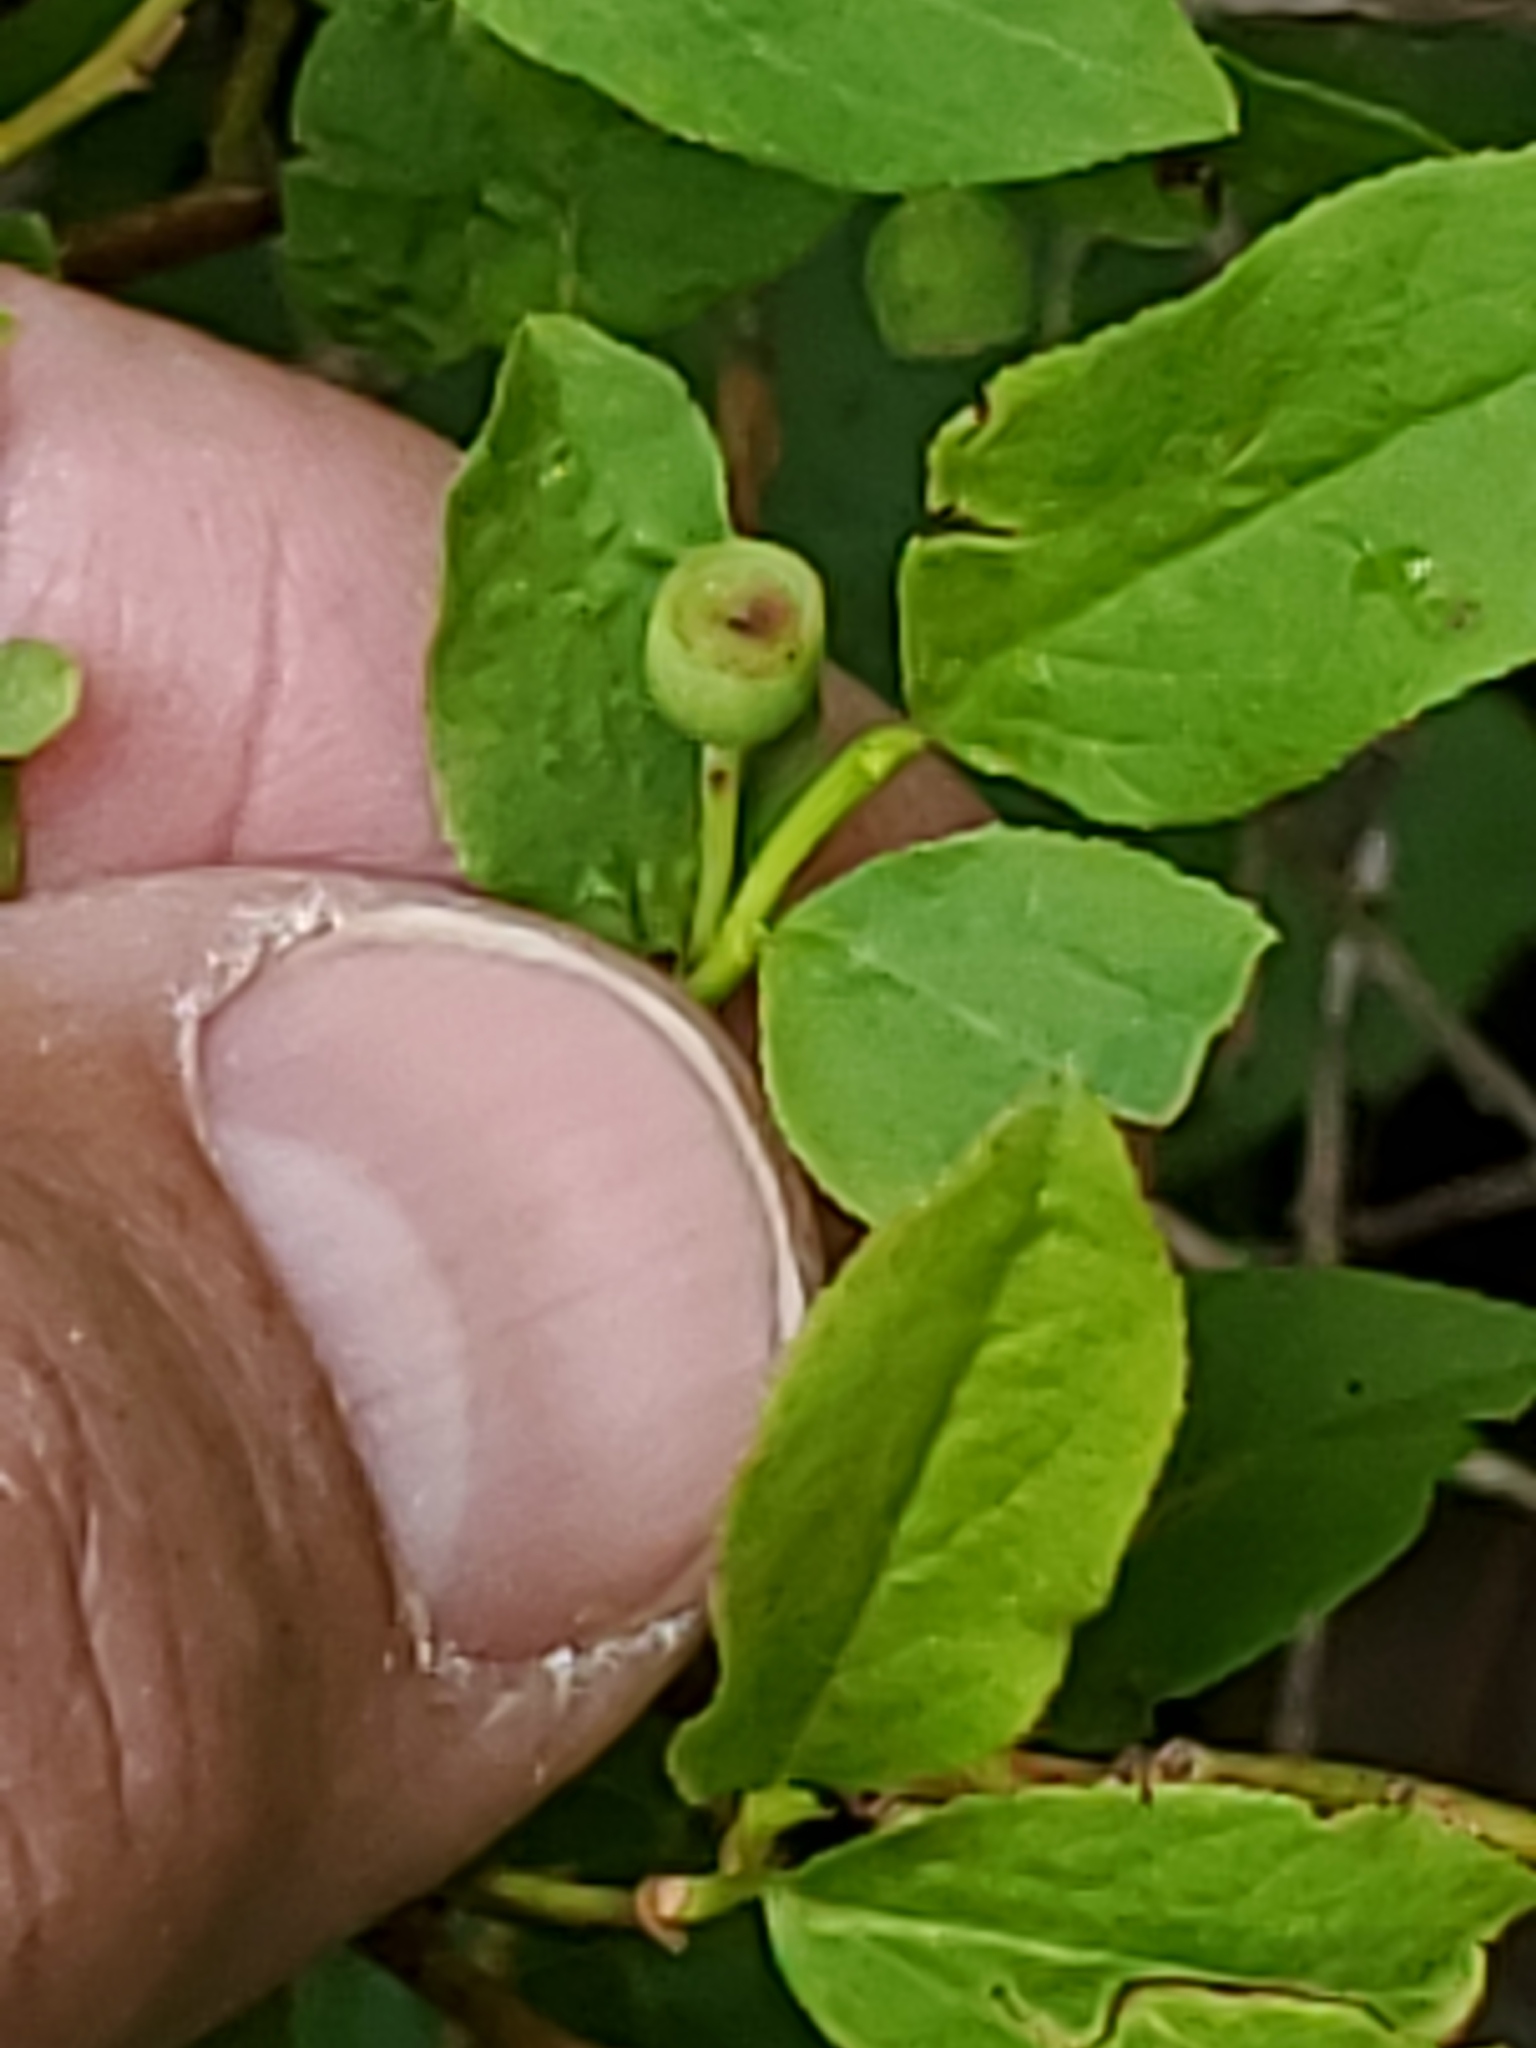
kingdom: Plantae
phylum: Tracheophyta
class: Magnoliopsida
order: Ericales
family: Ericaceae
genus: Vaccinium
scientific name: Vaccinium membranaceum
